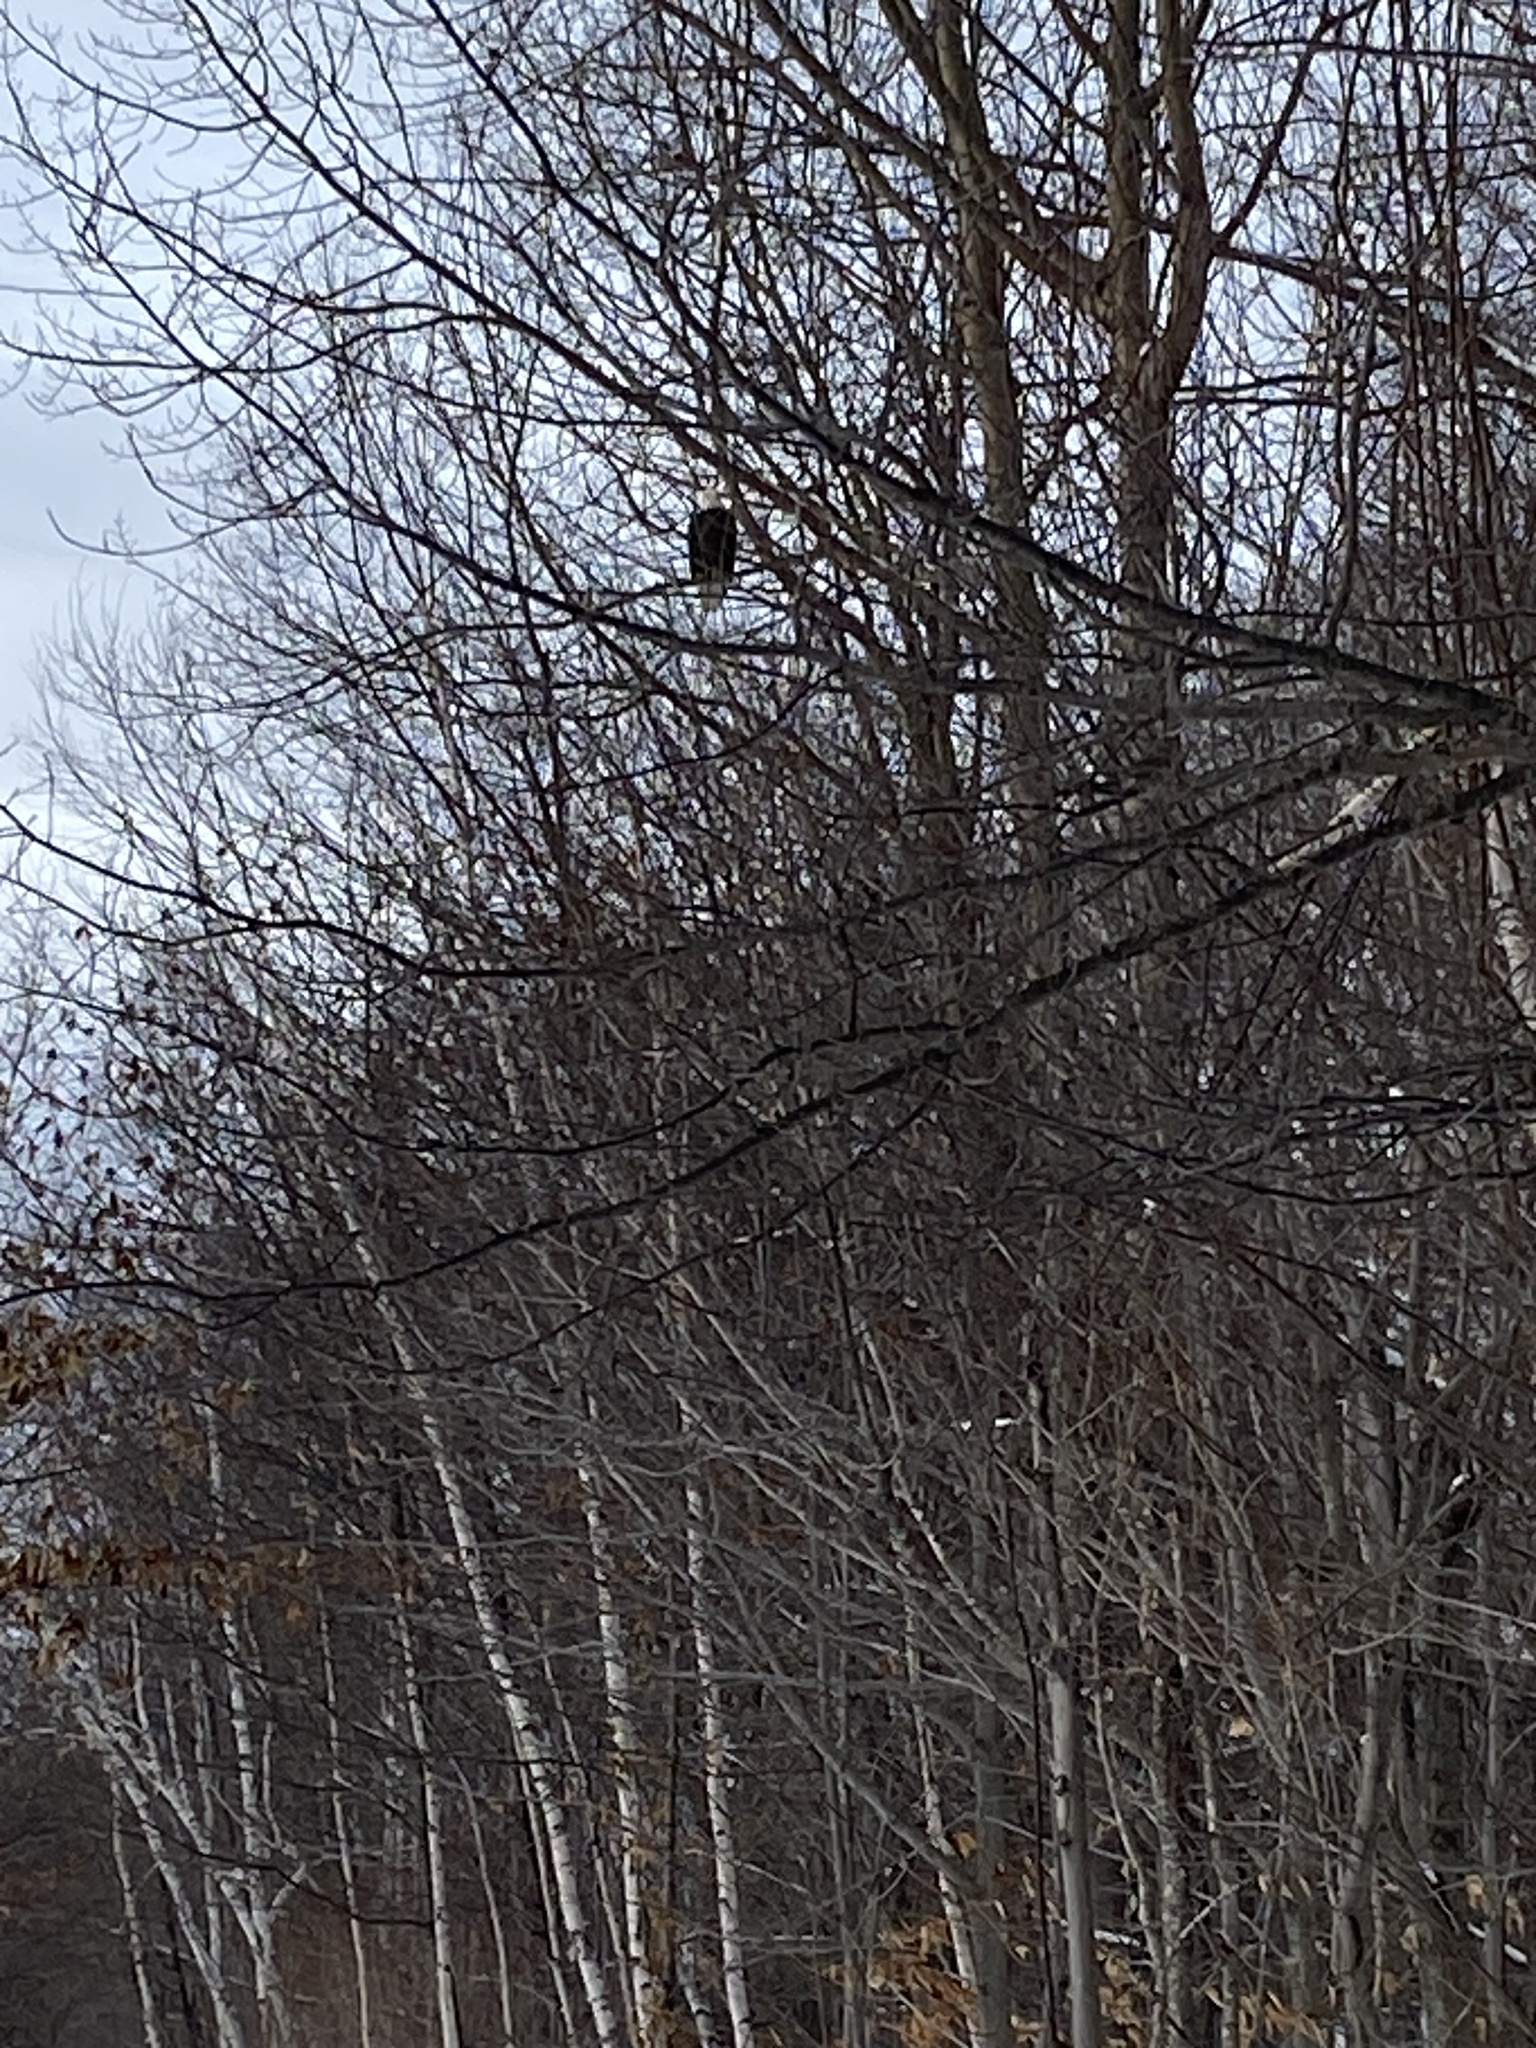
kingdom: Animalia
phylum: Chordata
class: Aves
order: Accipitriformes
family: Accipitridae
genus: Haliaeetus
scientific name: Haliaeetus leucocephalus
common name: Bald eagle
